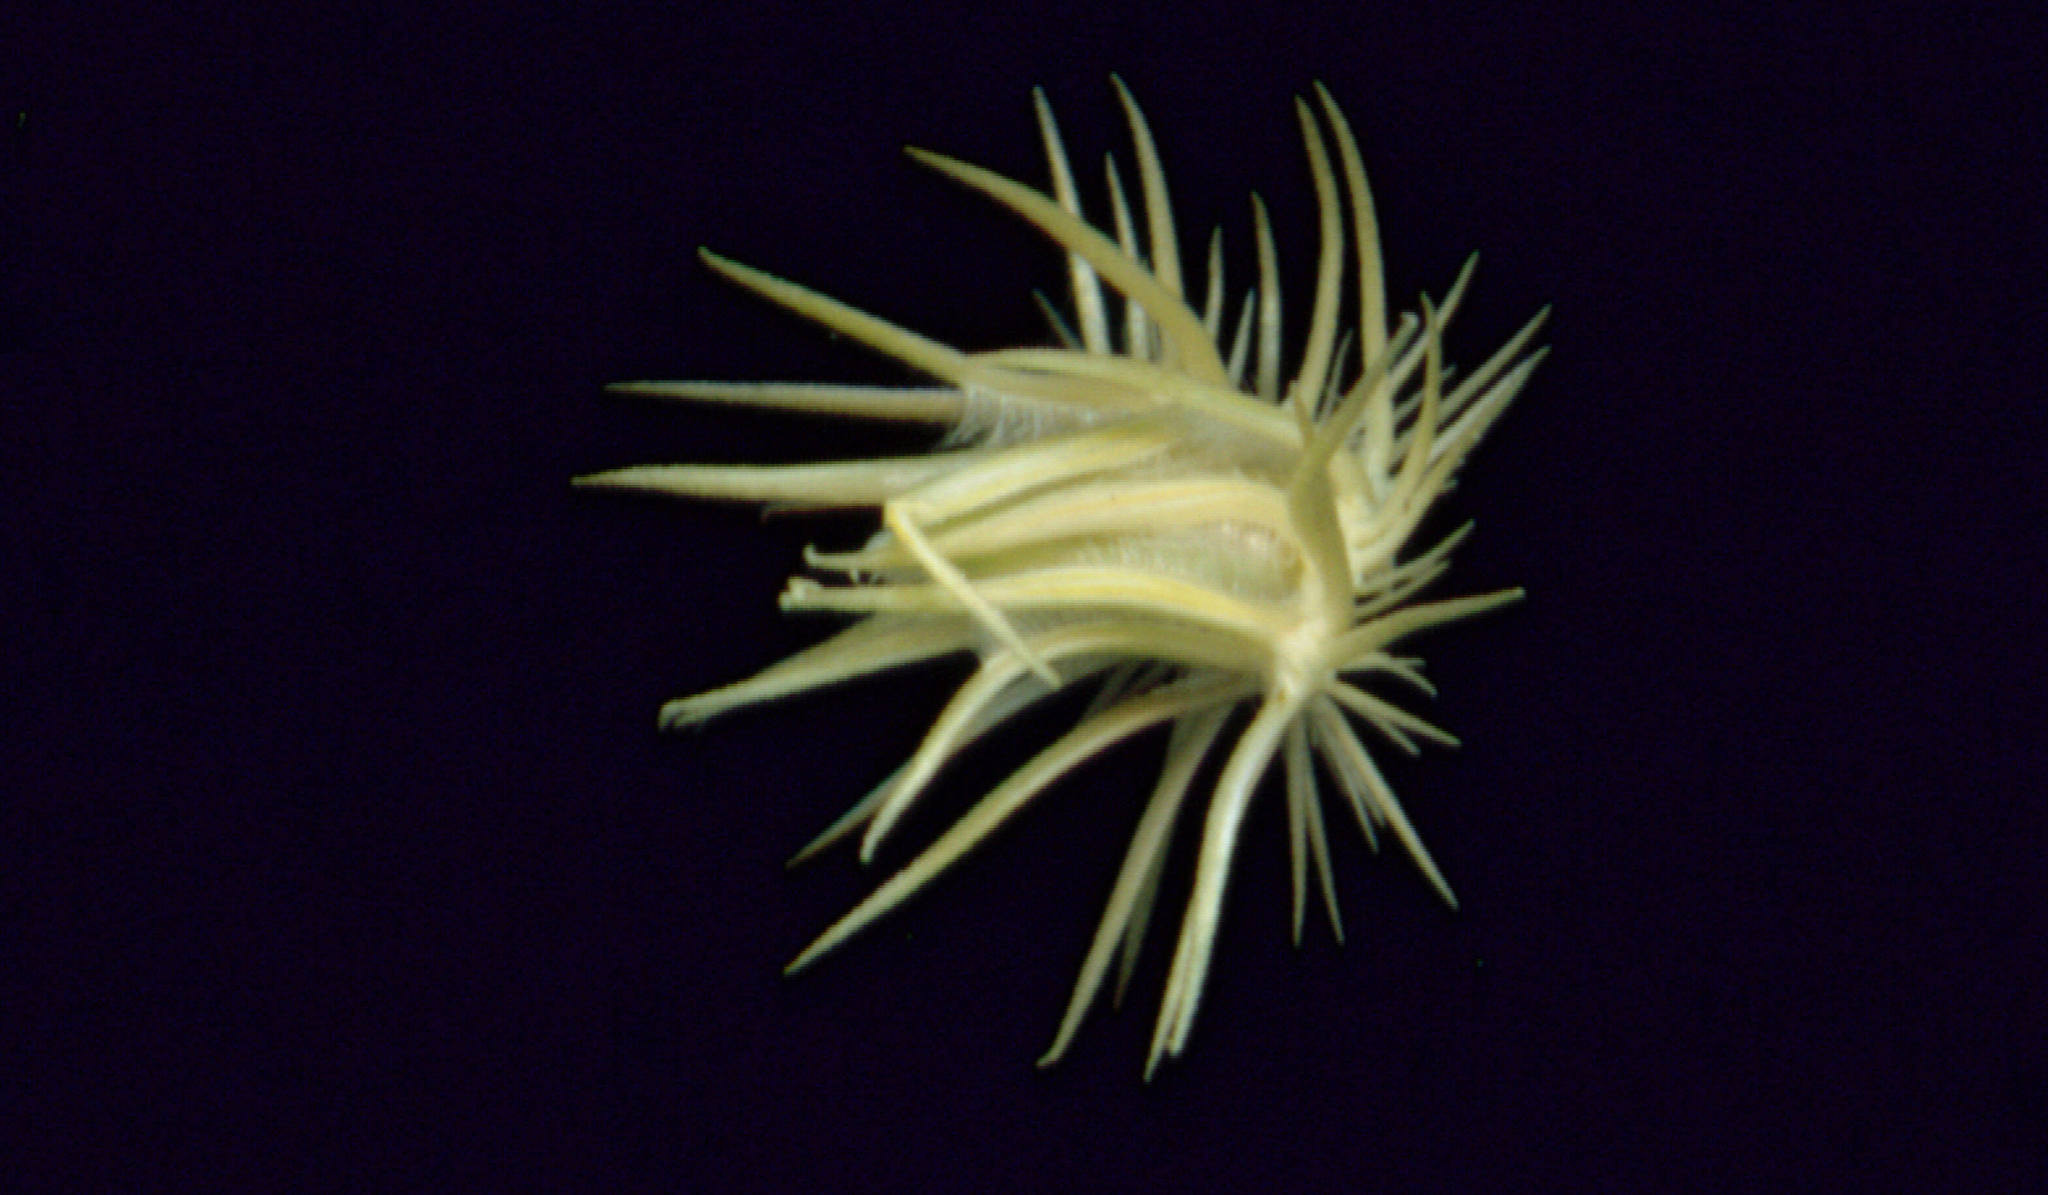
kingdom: Plantae
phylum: Tracheophyta
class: Liliopsida
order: Poales
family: Poaceae
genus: Cenchrus
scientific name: Cenchrus biflorus
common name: Indian sandbur
